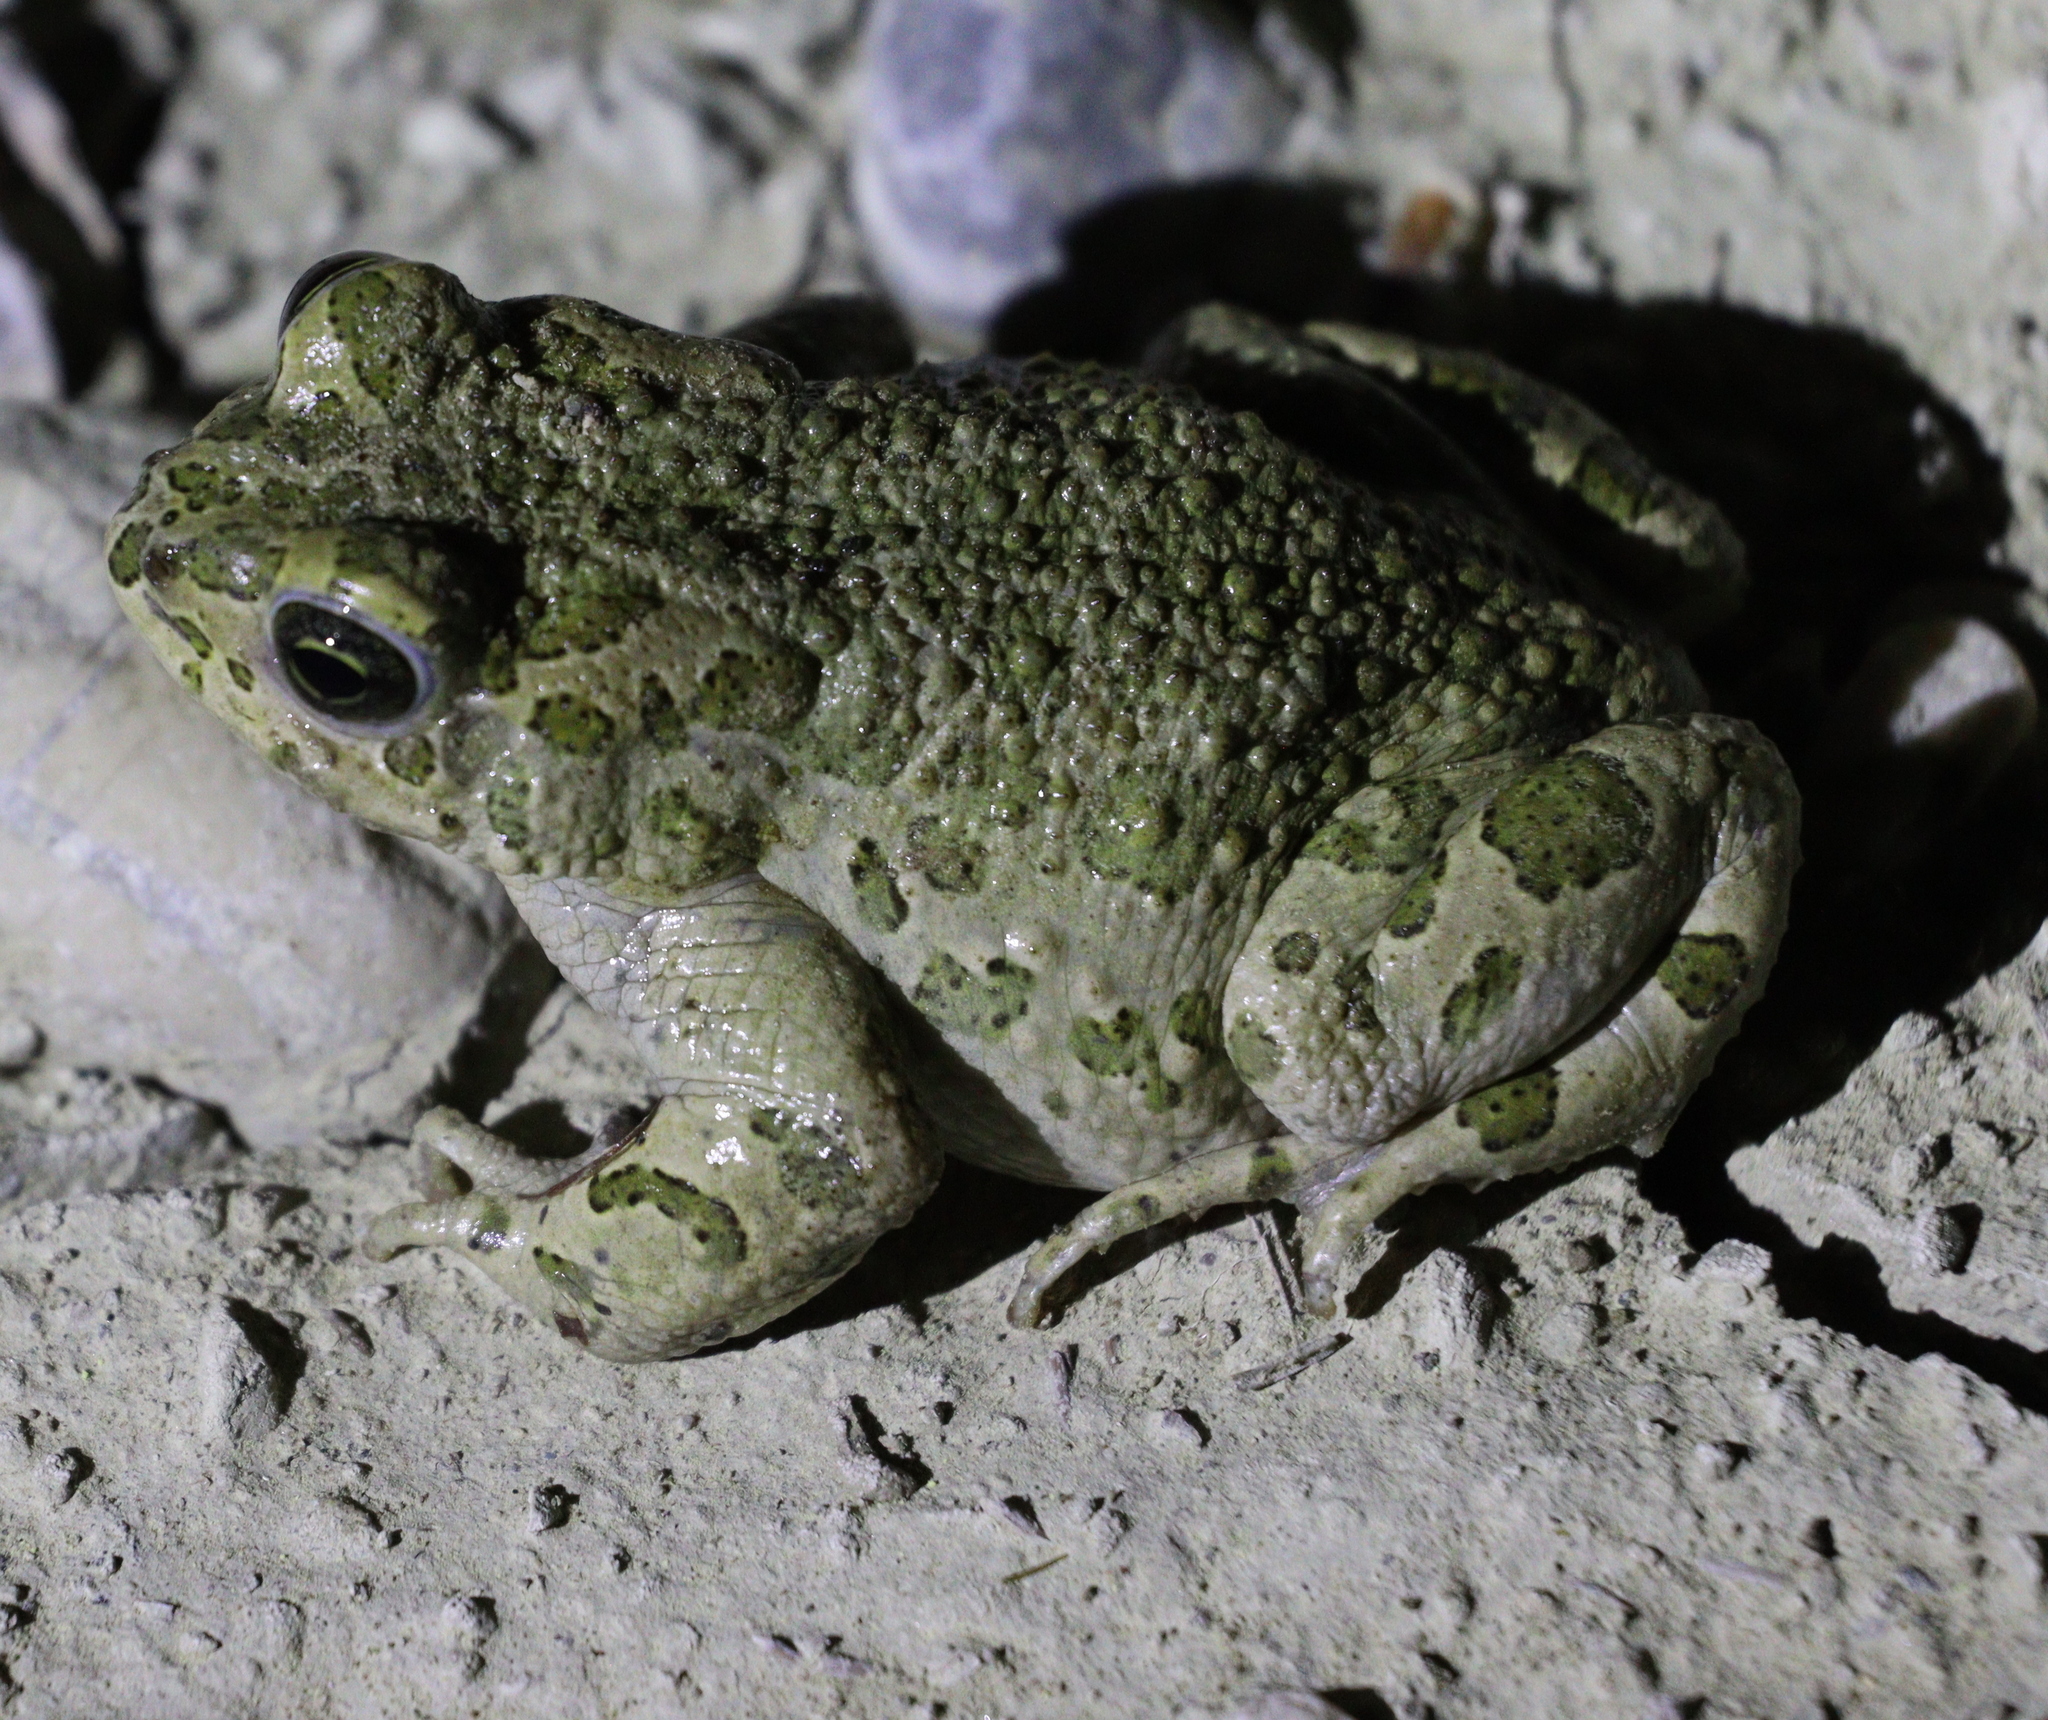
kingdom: Animalia
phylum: Chordata
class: Amphibia
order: Anura
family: Bufonidae
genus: Bufotes
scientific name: Bufotes viridis
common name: European green toad
